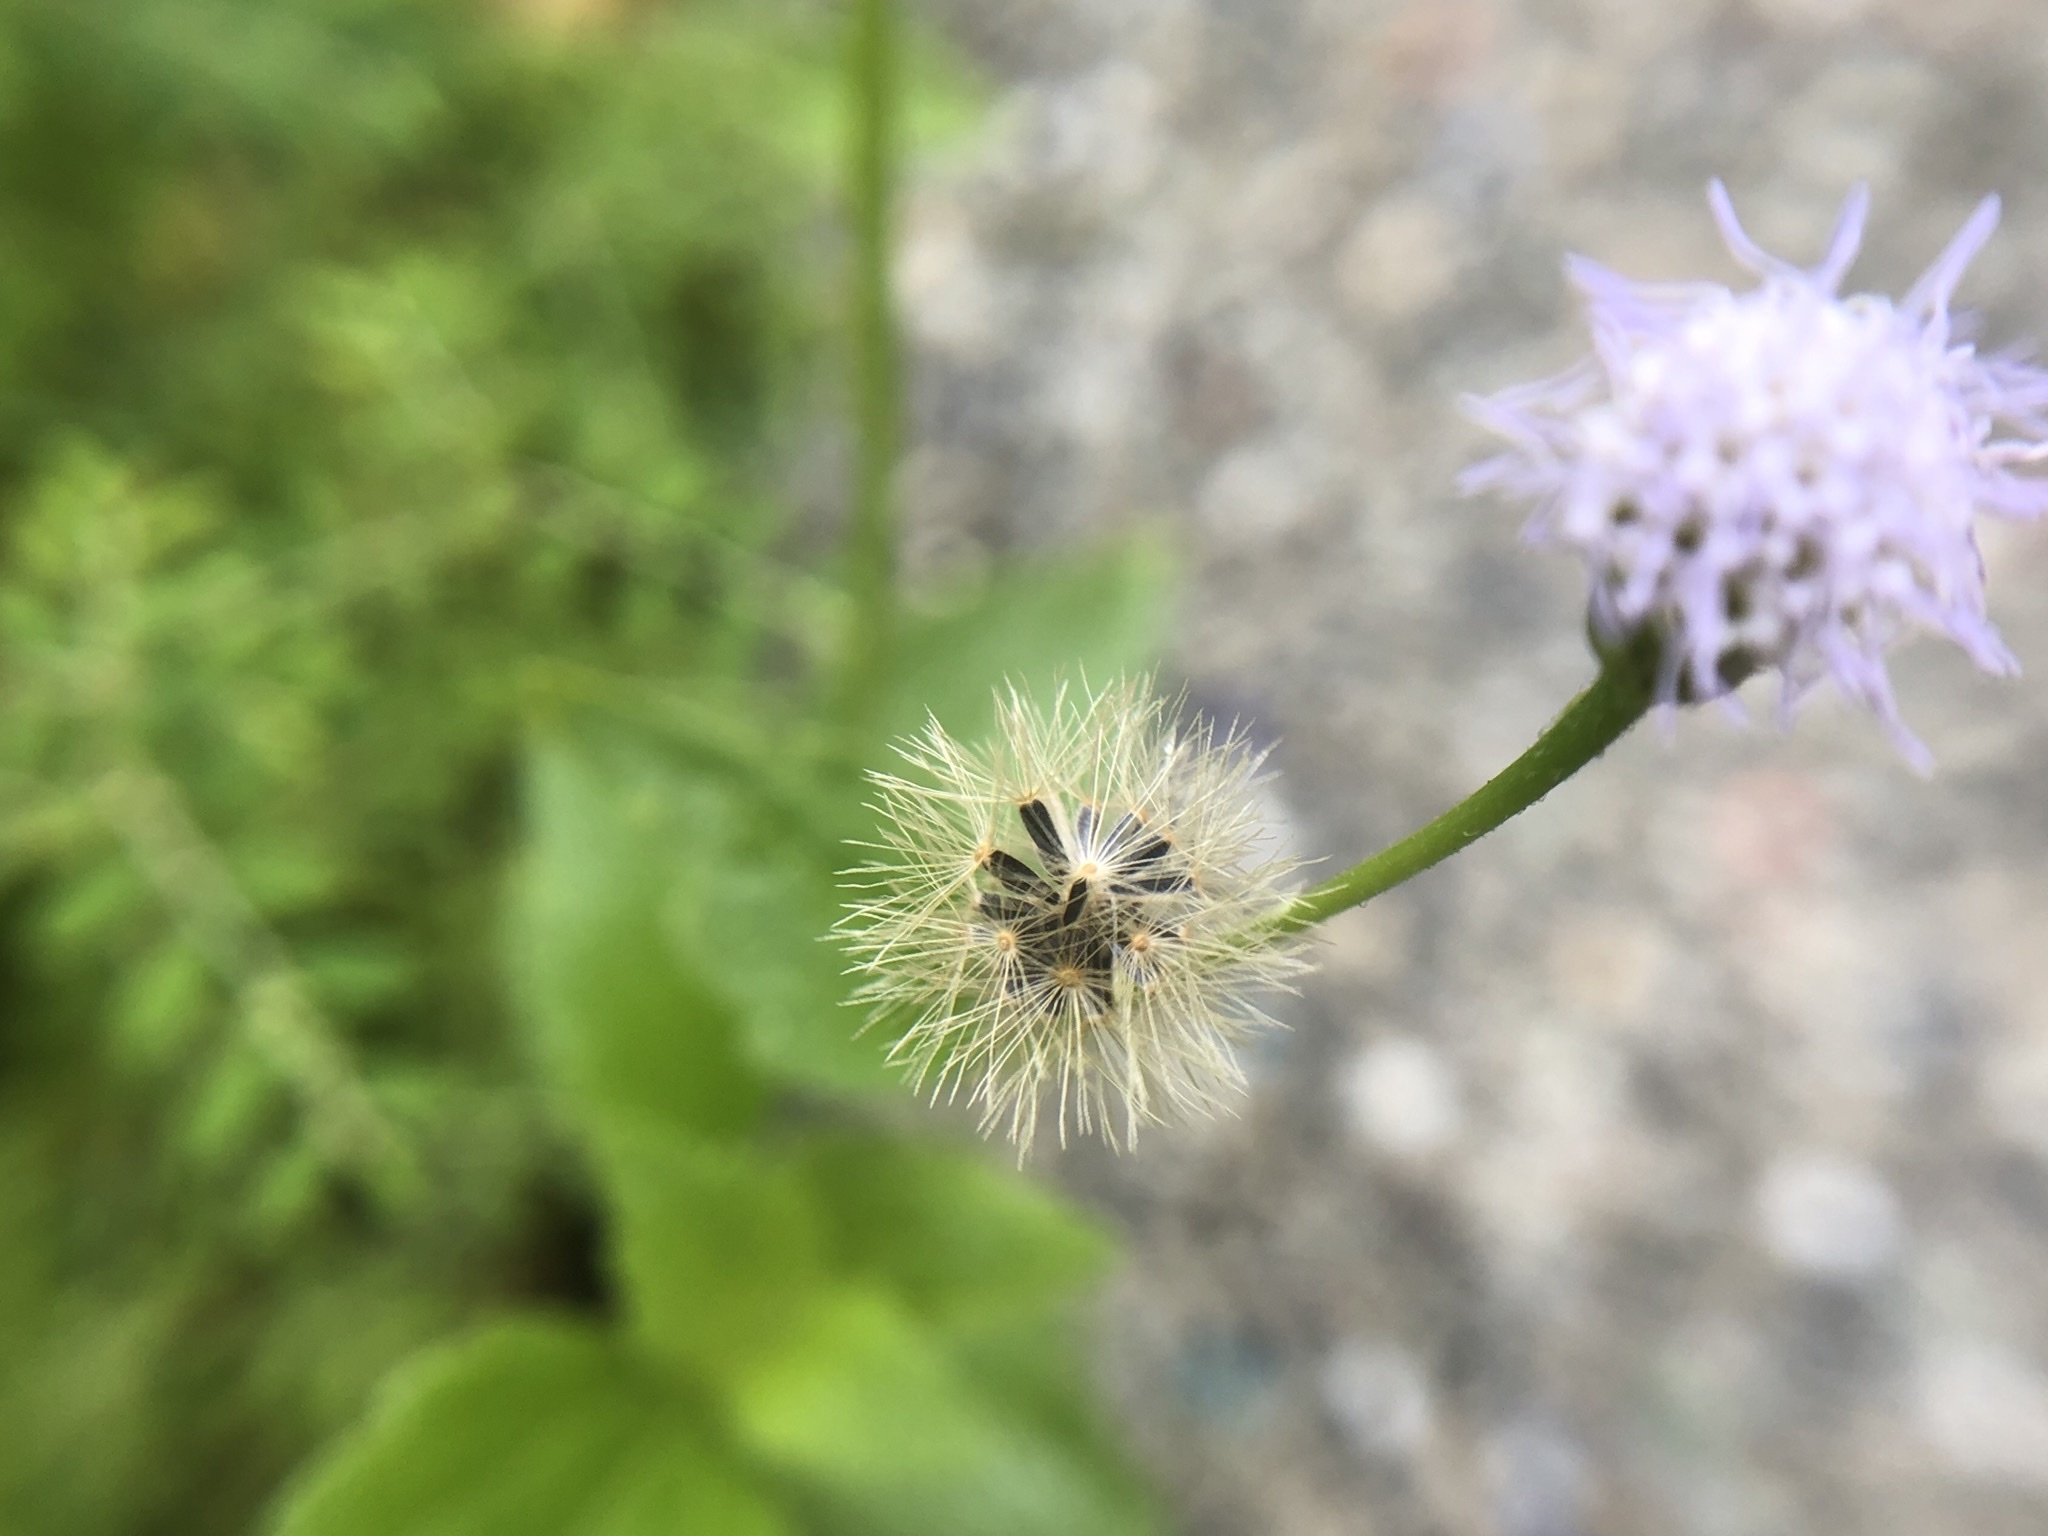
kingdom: Plantae
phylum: Tracheophyta
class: Magnoliopsida
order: Asterales
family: Asteraceae
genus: Praxelis
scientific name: Praxelis clematidea
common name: Praxelis
